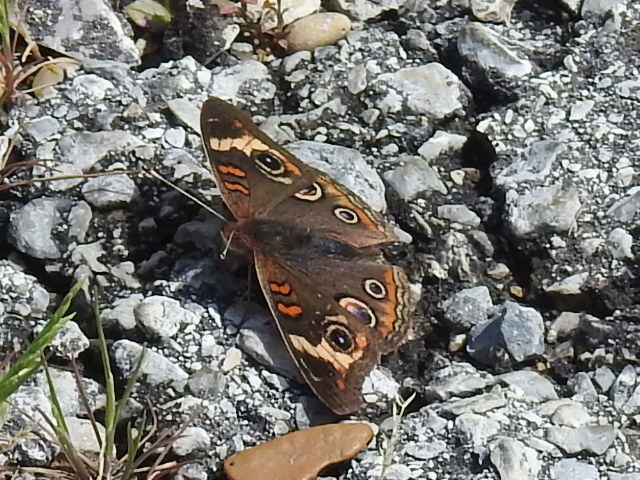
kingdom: Animalia
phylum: Arthropoda
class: Insecta
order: Lepidoptera
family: Nymphalidae
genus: Junonia
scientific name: Junonia coenia
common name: Common buckeye
